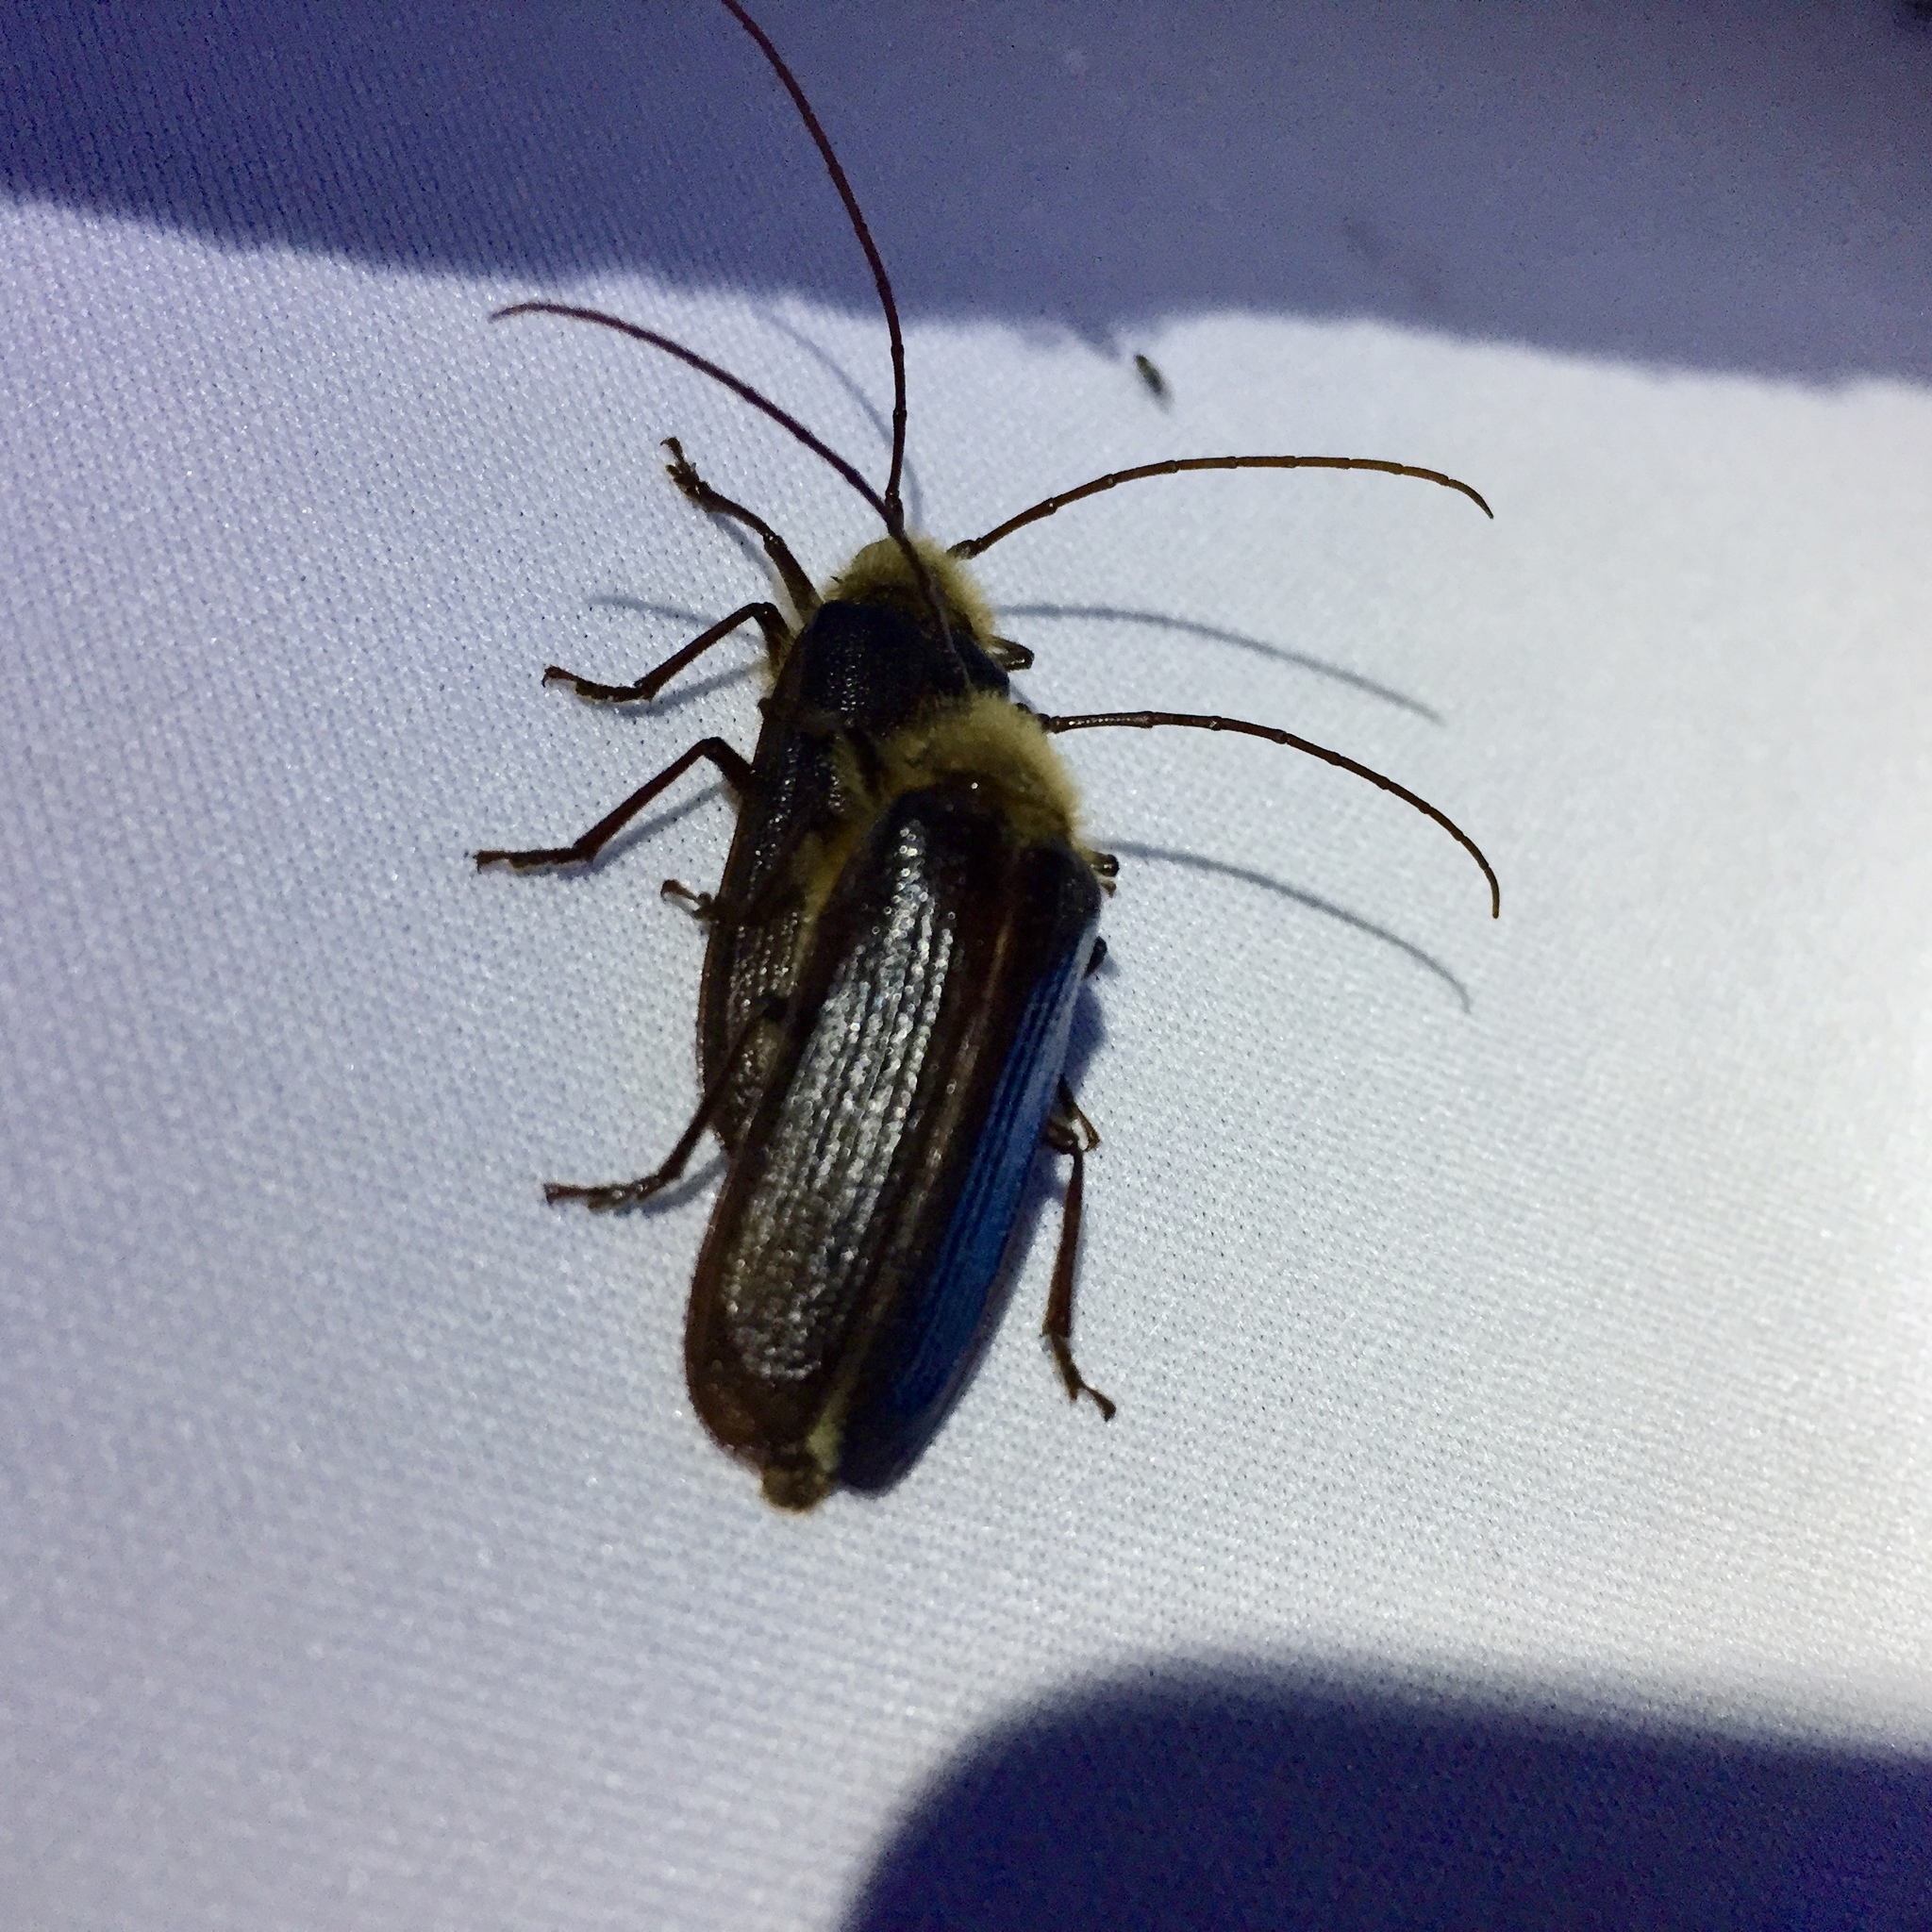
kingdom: Animalia
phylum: Arthropoda
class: Insecta
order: Coleoptera
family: Cerambycidae
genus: Tragosoma
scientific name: Tragosoma harrisii
